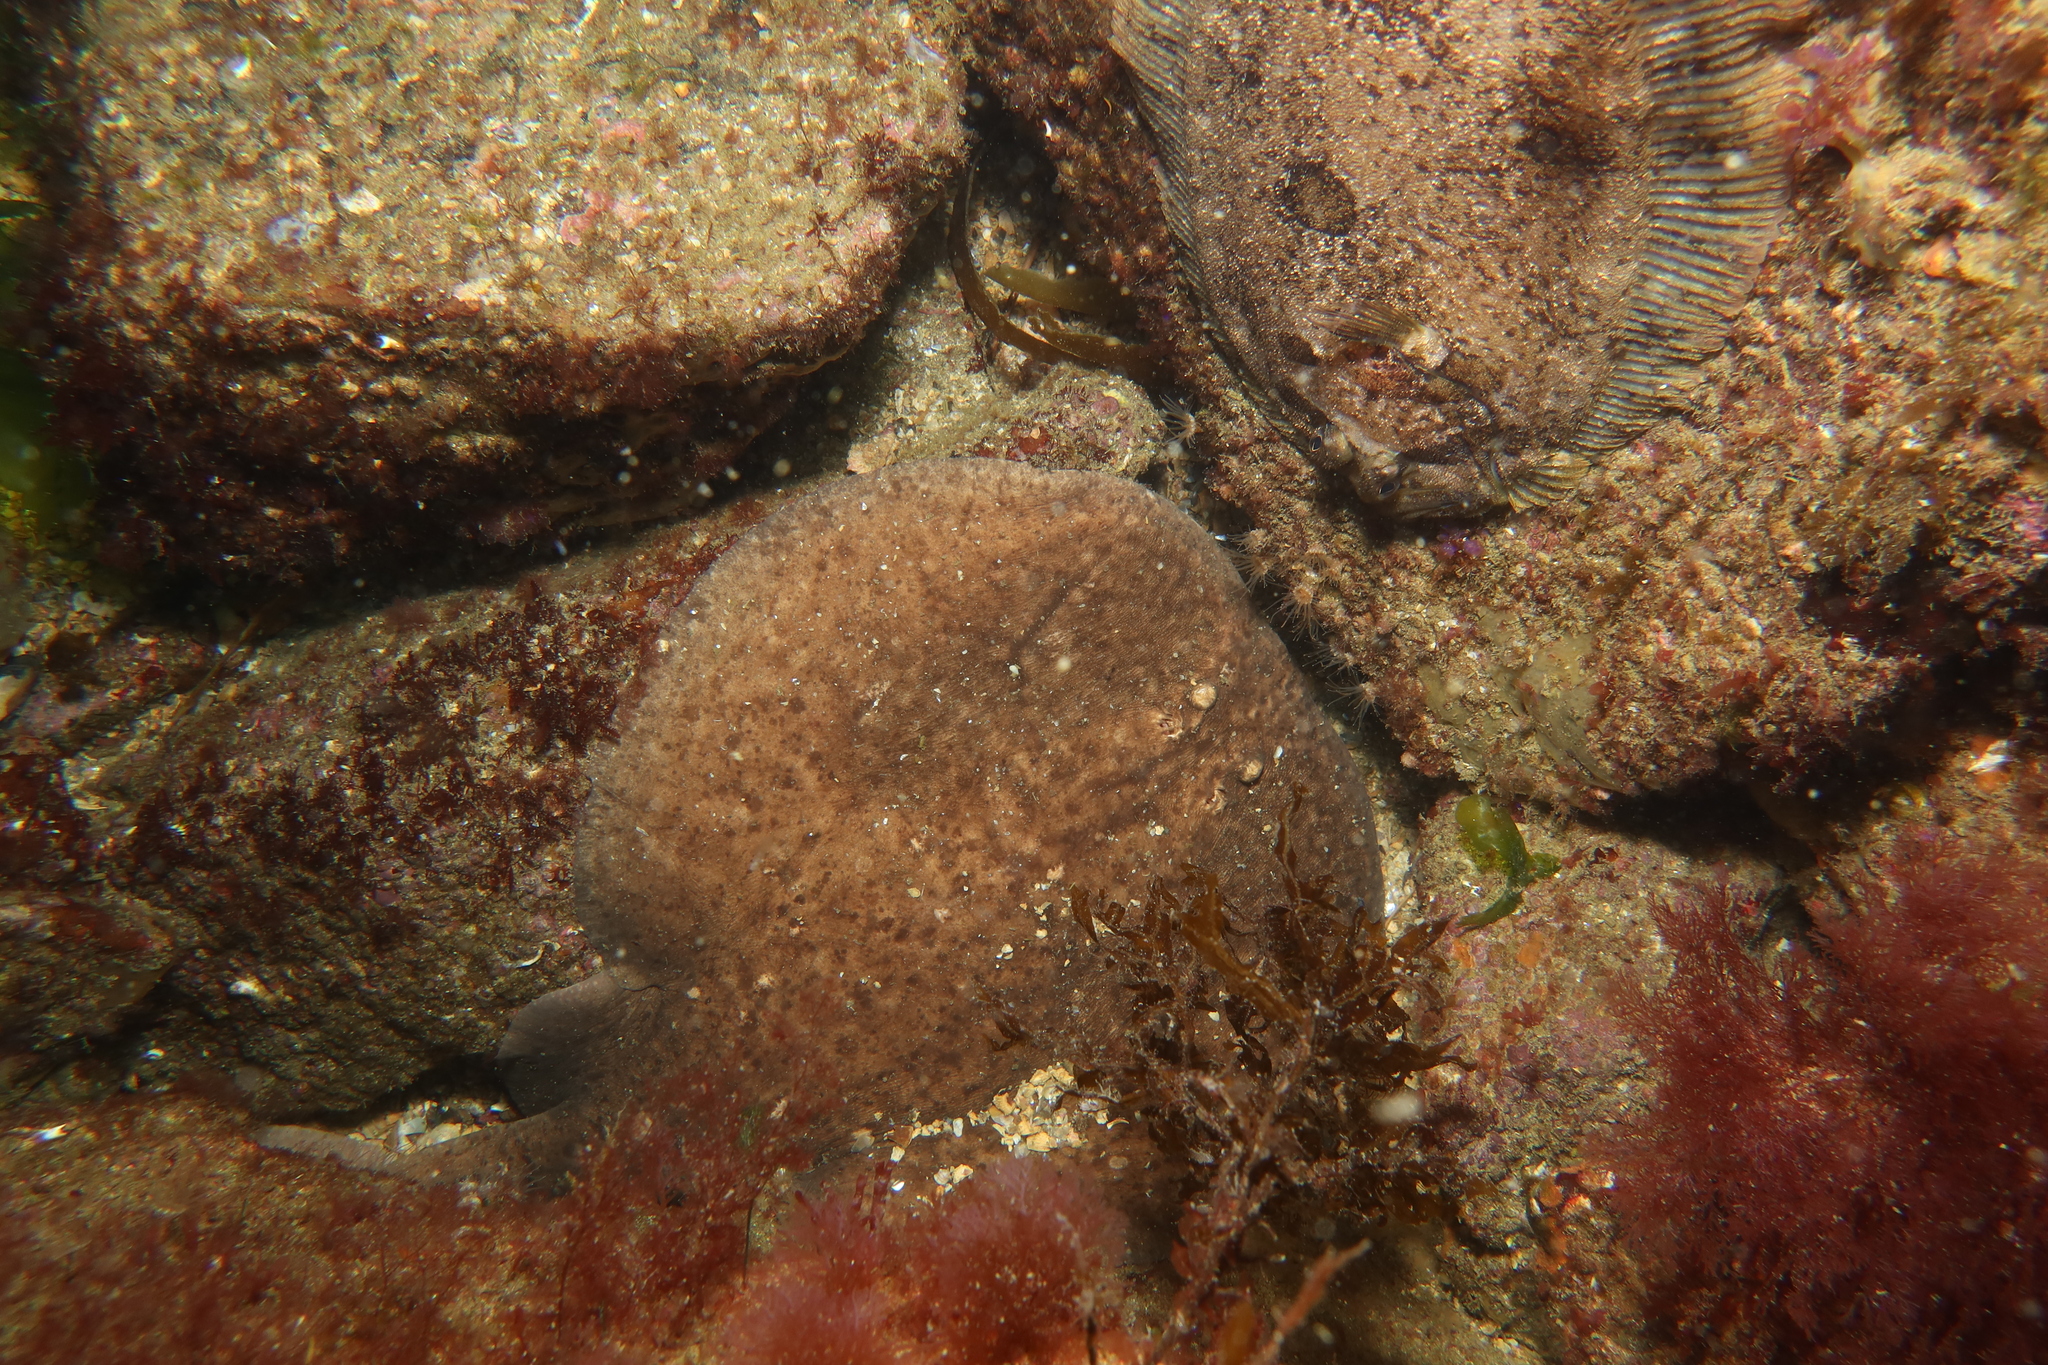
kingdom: Animalia
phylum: Chordata
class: Elasmobranchii
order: Torpediniformes
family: Torpedinidae
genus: Torpedo
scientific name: Torpedo marmorata
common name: Marbled electric ray
